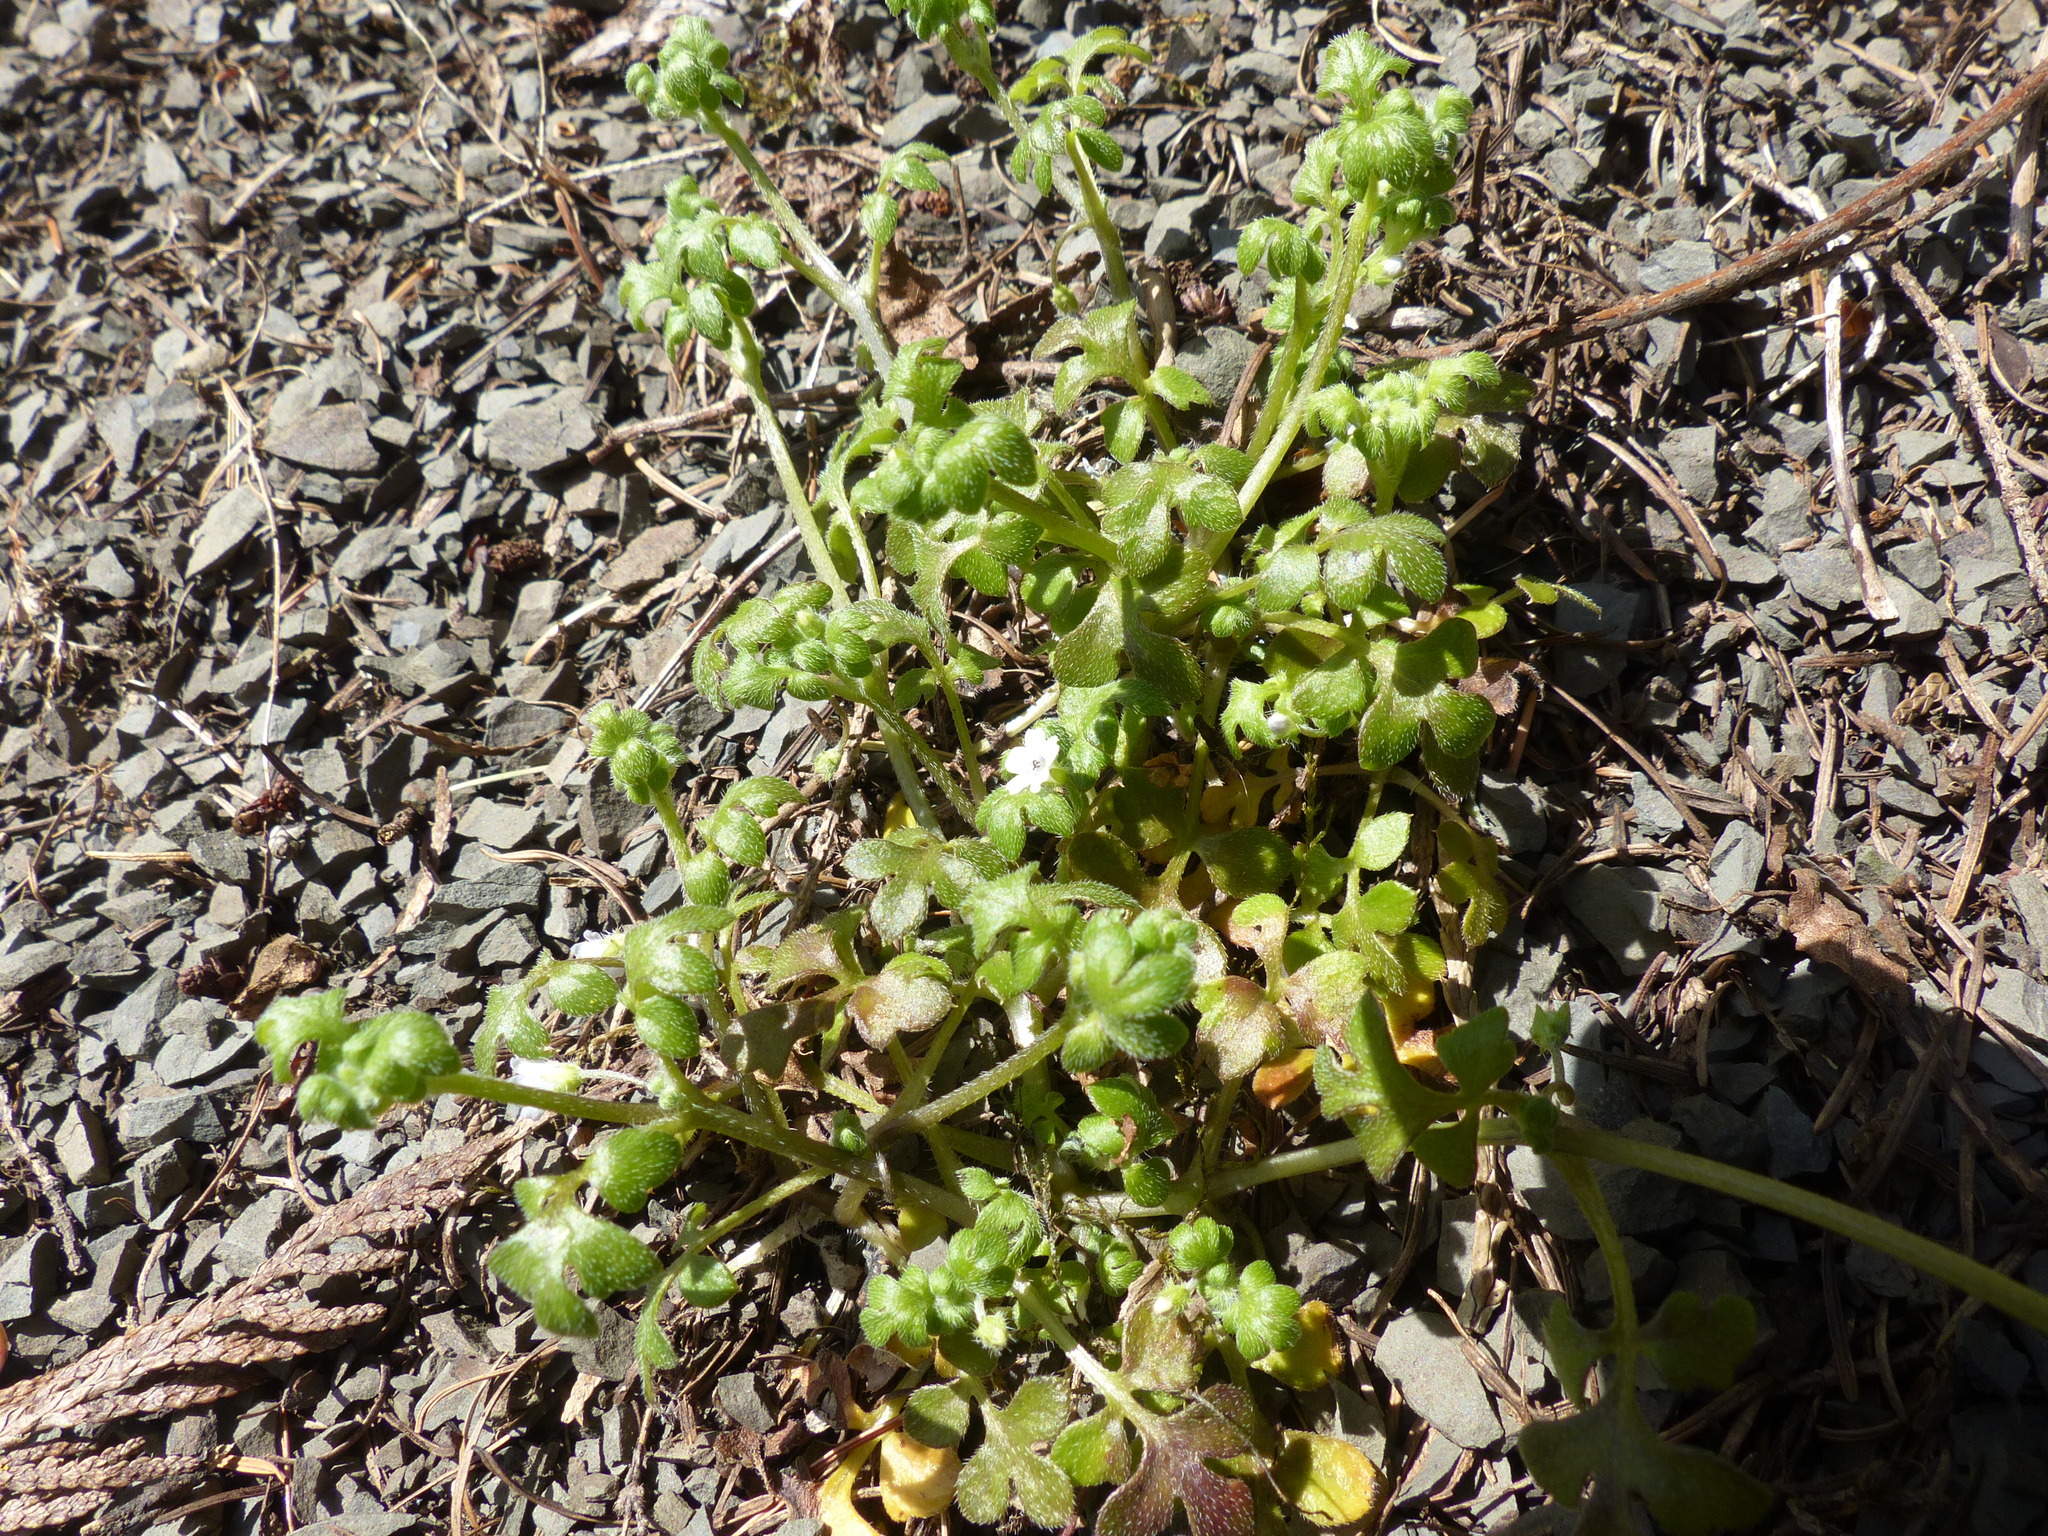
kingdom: Plantae
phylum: Tracheophyta
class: Magnoliopsida
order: Boraginales
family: Hydrophyllaceae
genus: Nemophila
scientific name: Nemophila parviflora
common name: Small-flowered baby-blue-eyes
